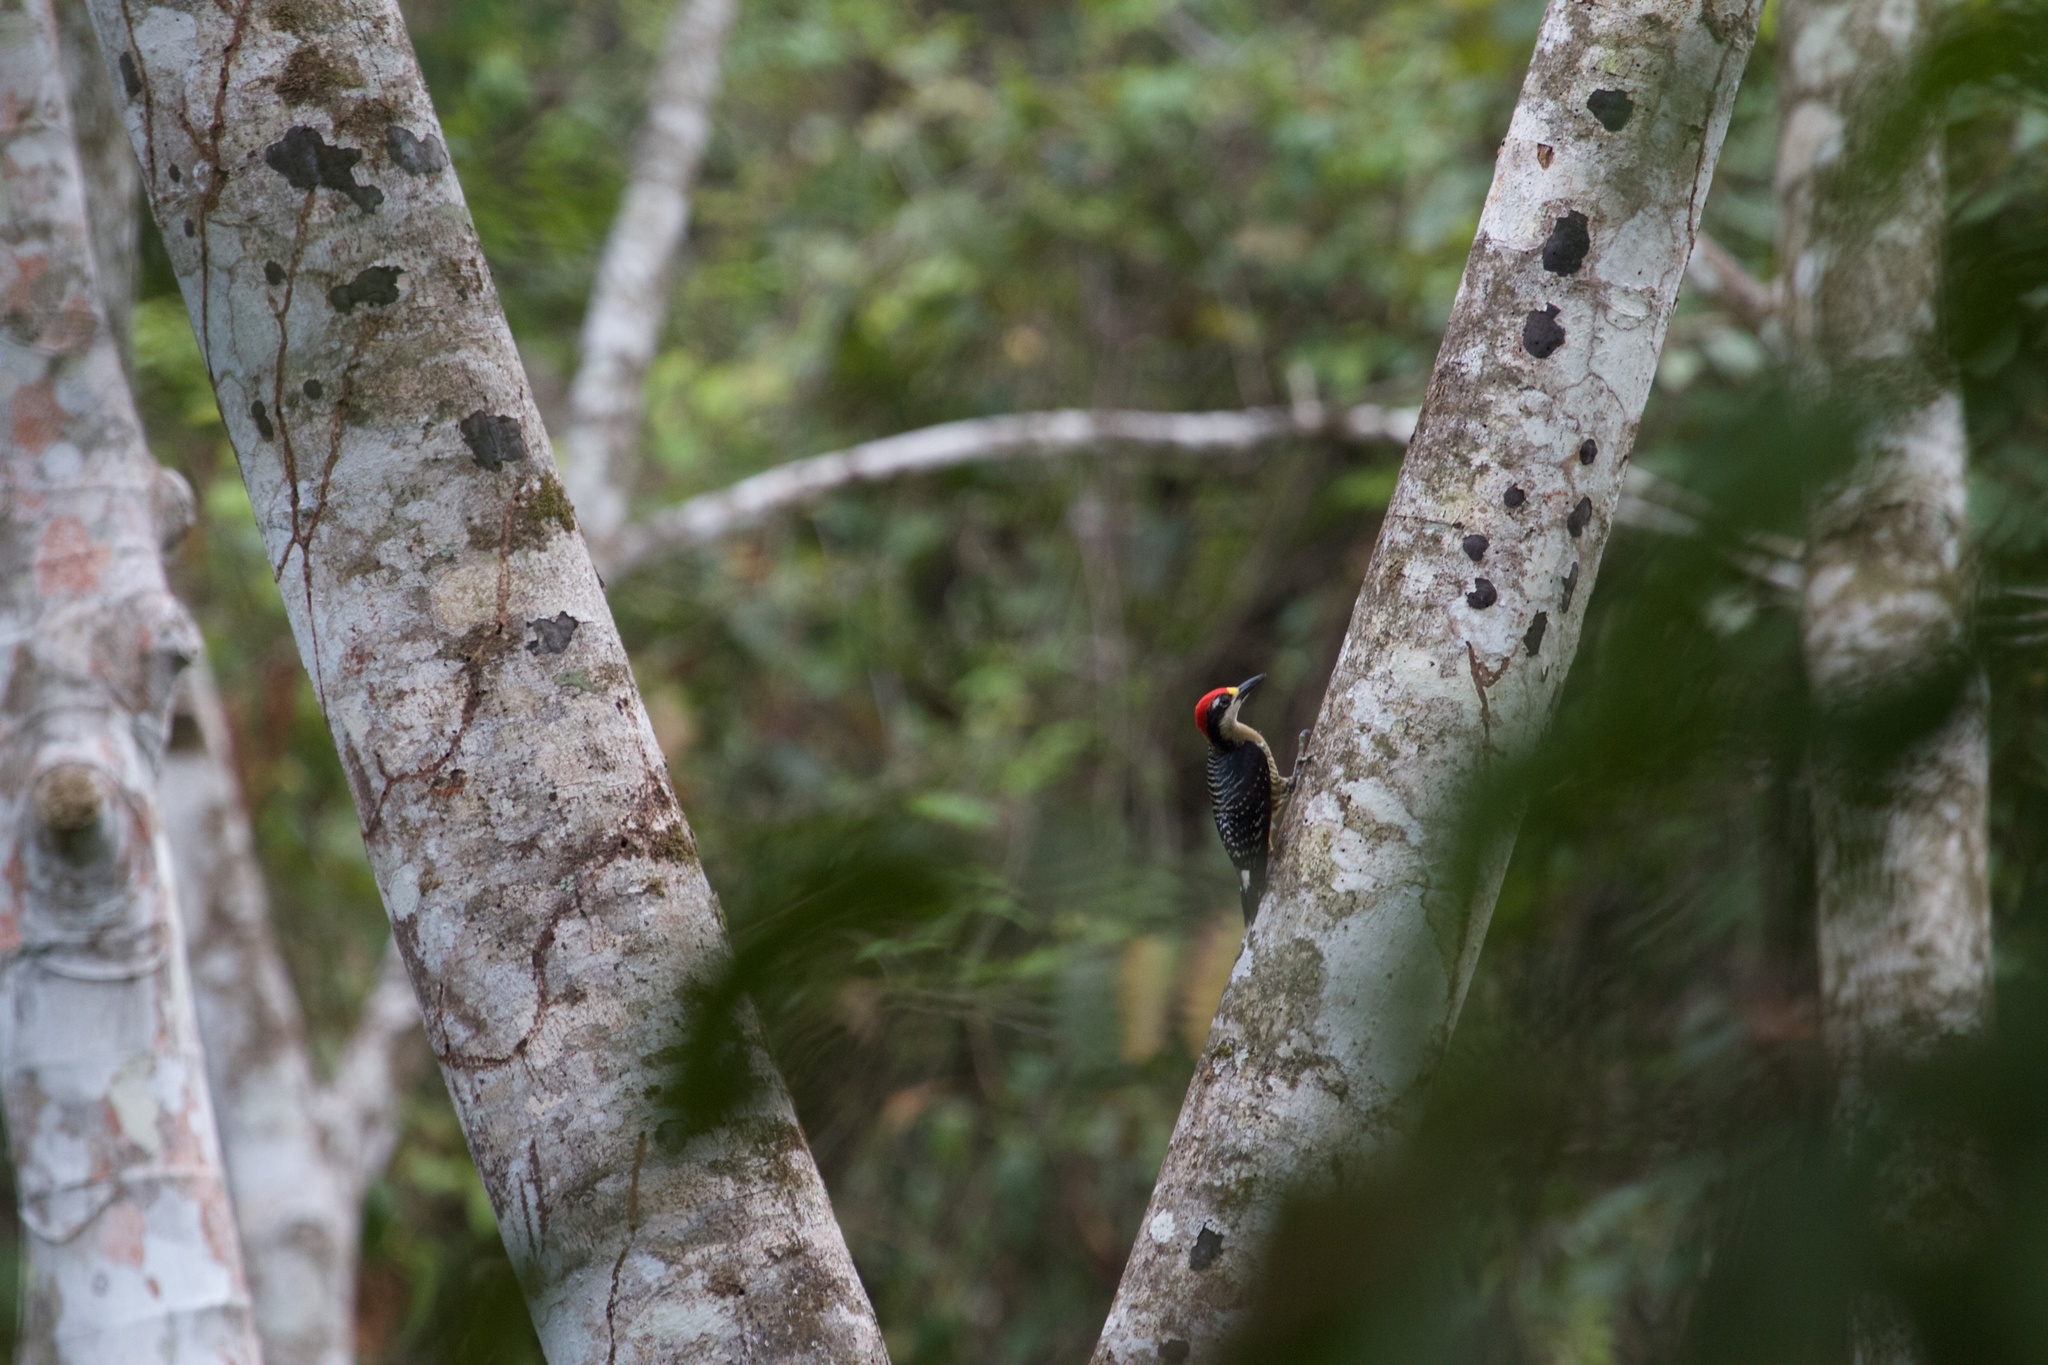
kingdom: Animalia
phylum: Chordata
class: Aves
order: Piciformes
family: Picidae
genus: Melanerpes
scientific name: Melanerpes pucherani
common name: Black-cheeked woodpecker
